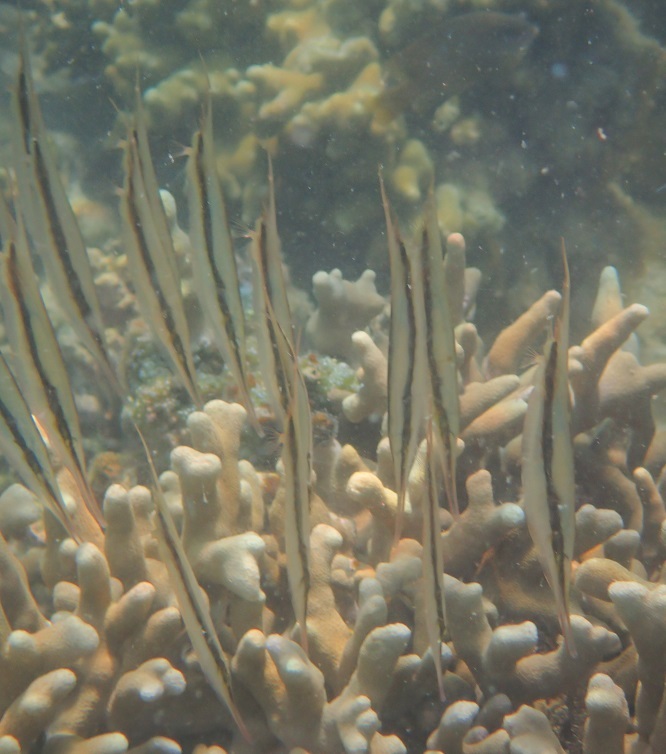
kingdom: Animalia
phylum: Chordata
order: Syngnathiformes
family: Centriscidae
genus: Aeoliscus
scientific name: Aeoliscus strigatus
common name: Canif
